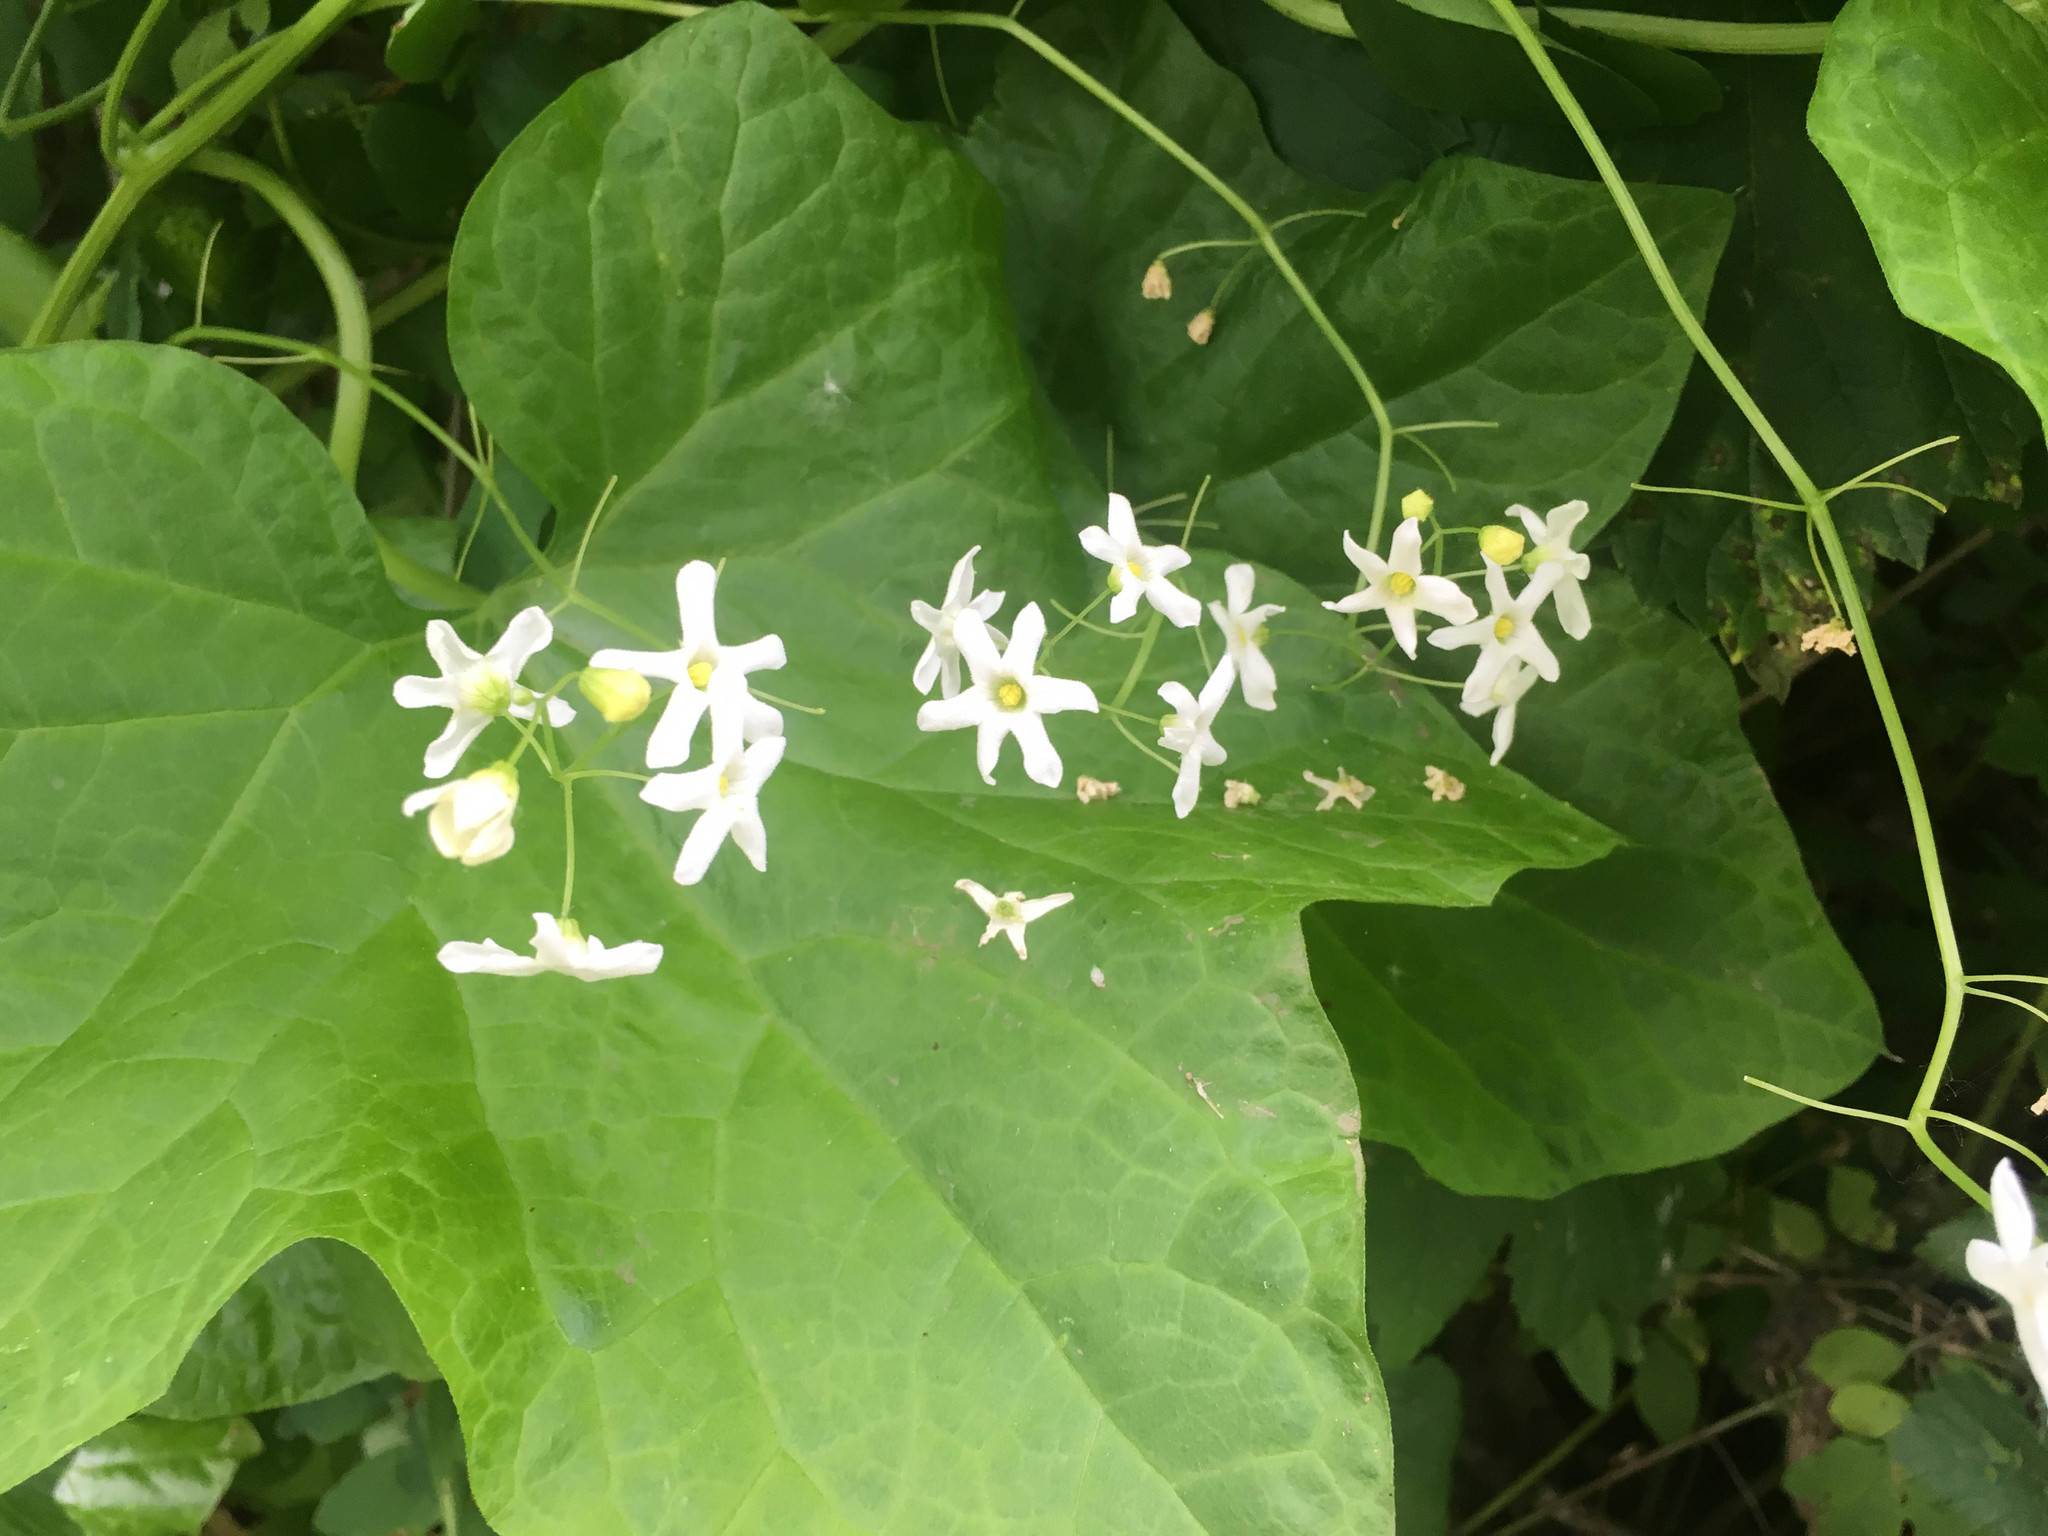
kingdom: Plantae
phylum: Tracheophyta
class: Magnoliopsida
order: Cucurbitales
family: Cucurbitaceae
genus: Marah
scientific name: Marah oregana
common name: Coastal manroot
